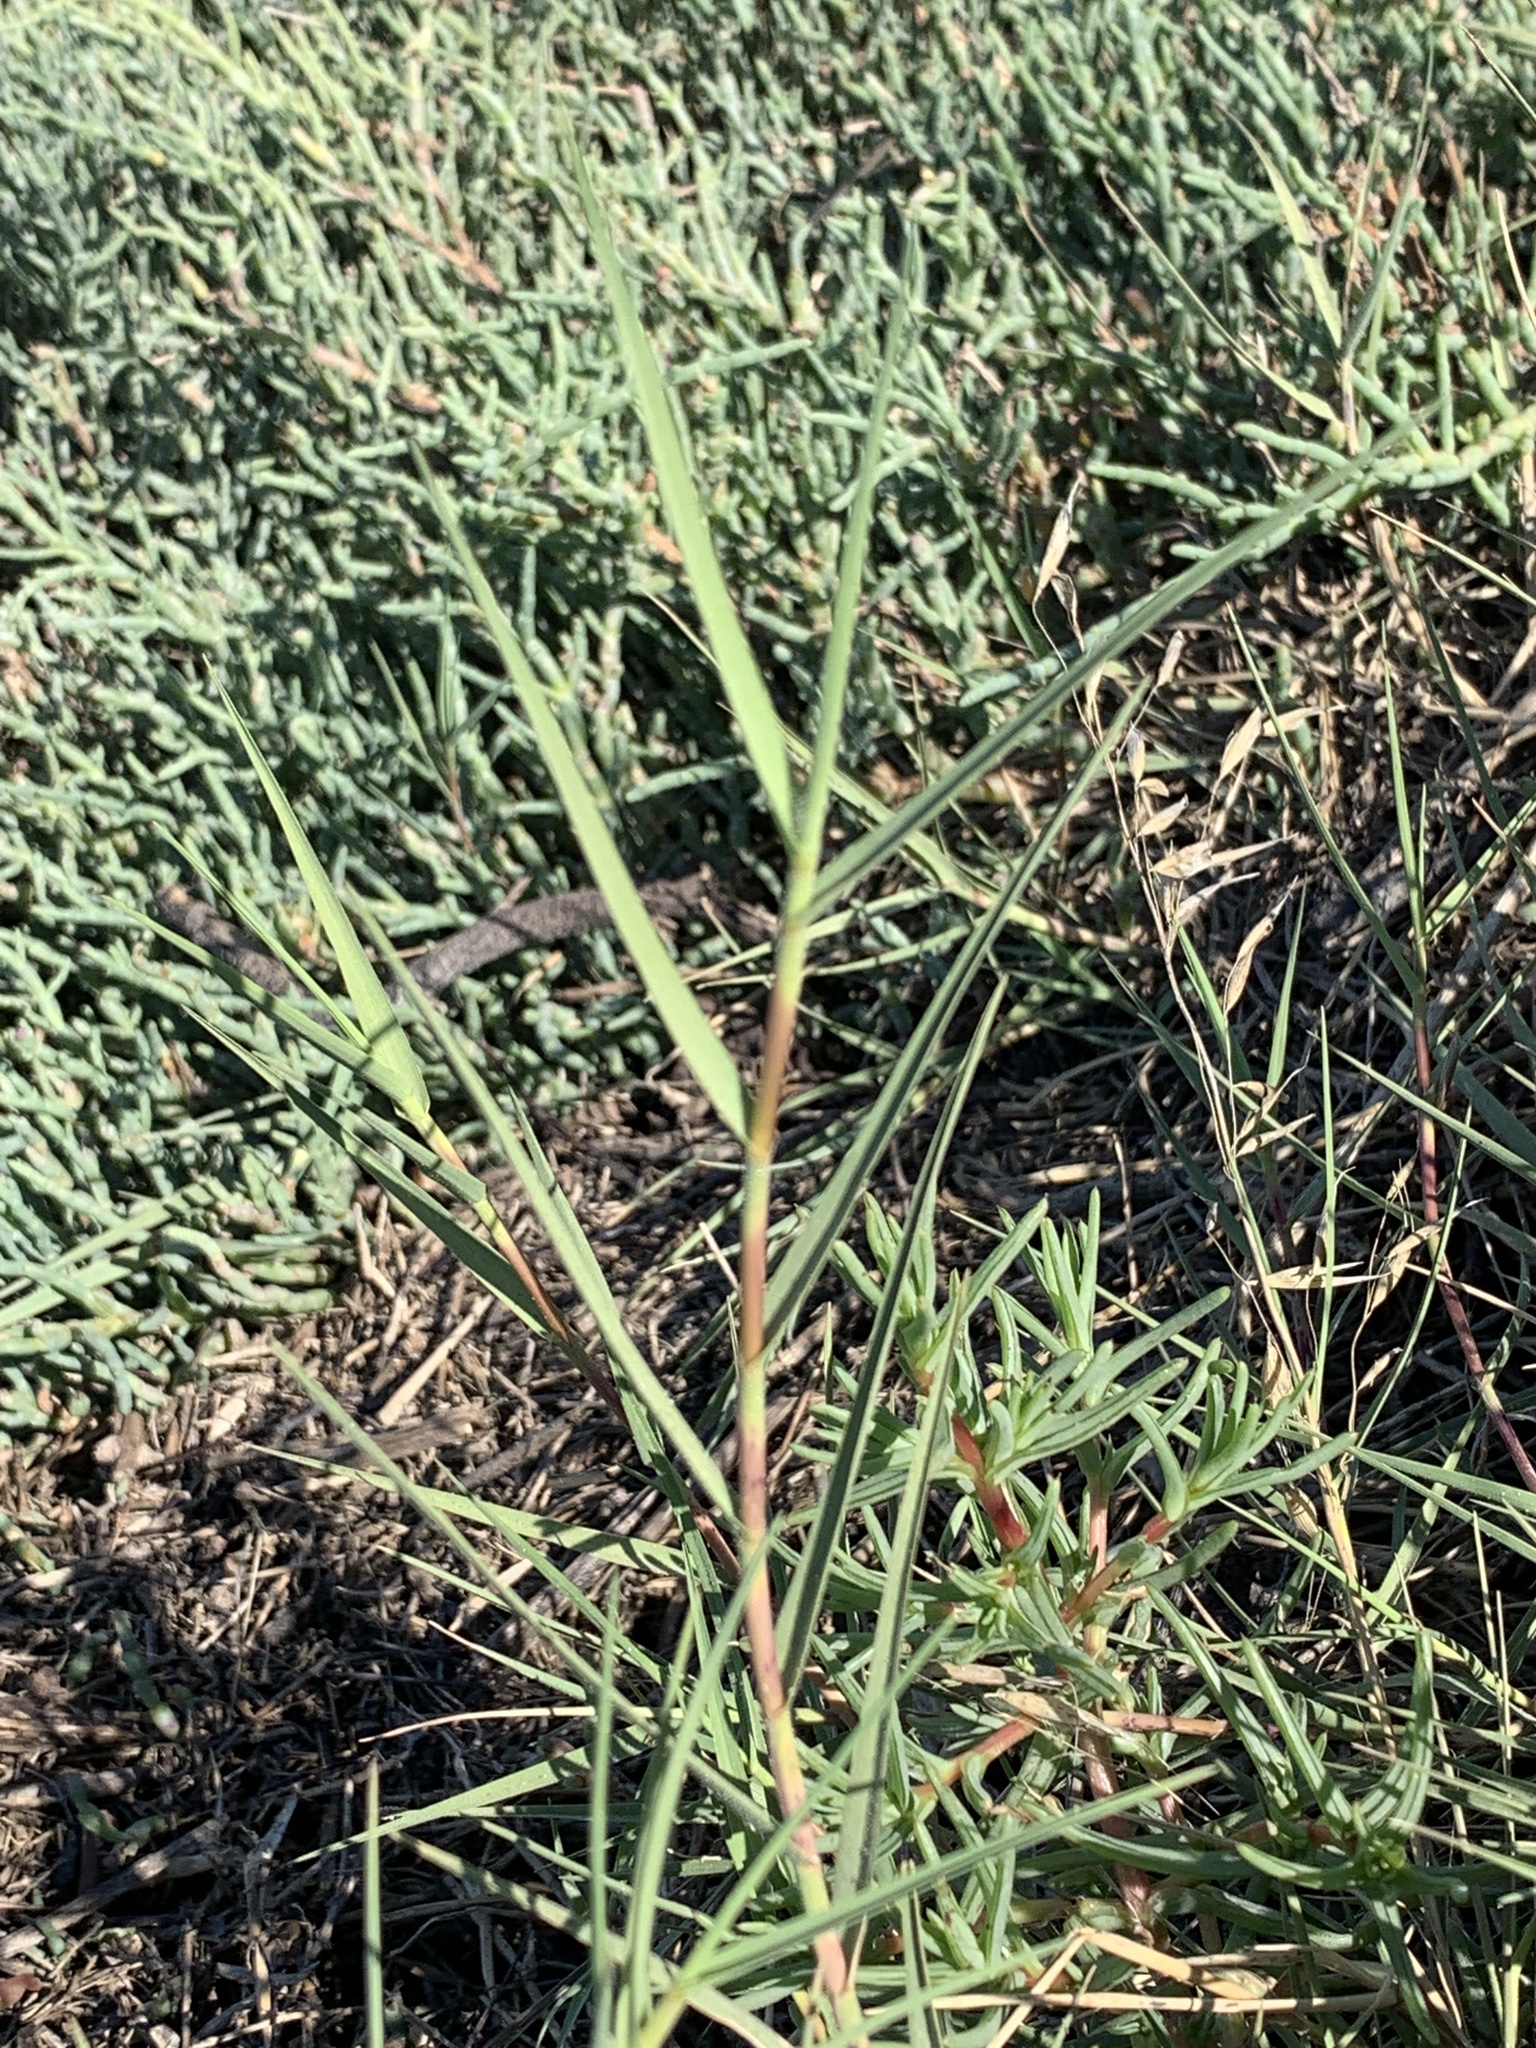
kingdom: Plantae
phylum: Tracheophyta
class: Liliopsida
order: Poales
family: Poaceae
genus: Distichlis
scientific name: Distichlis spicata
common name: Saltgrass
